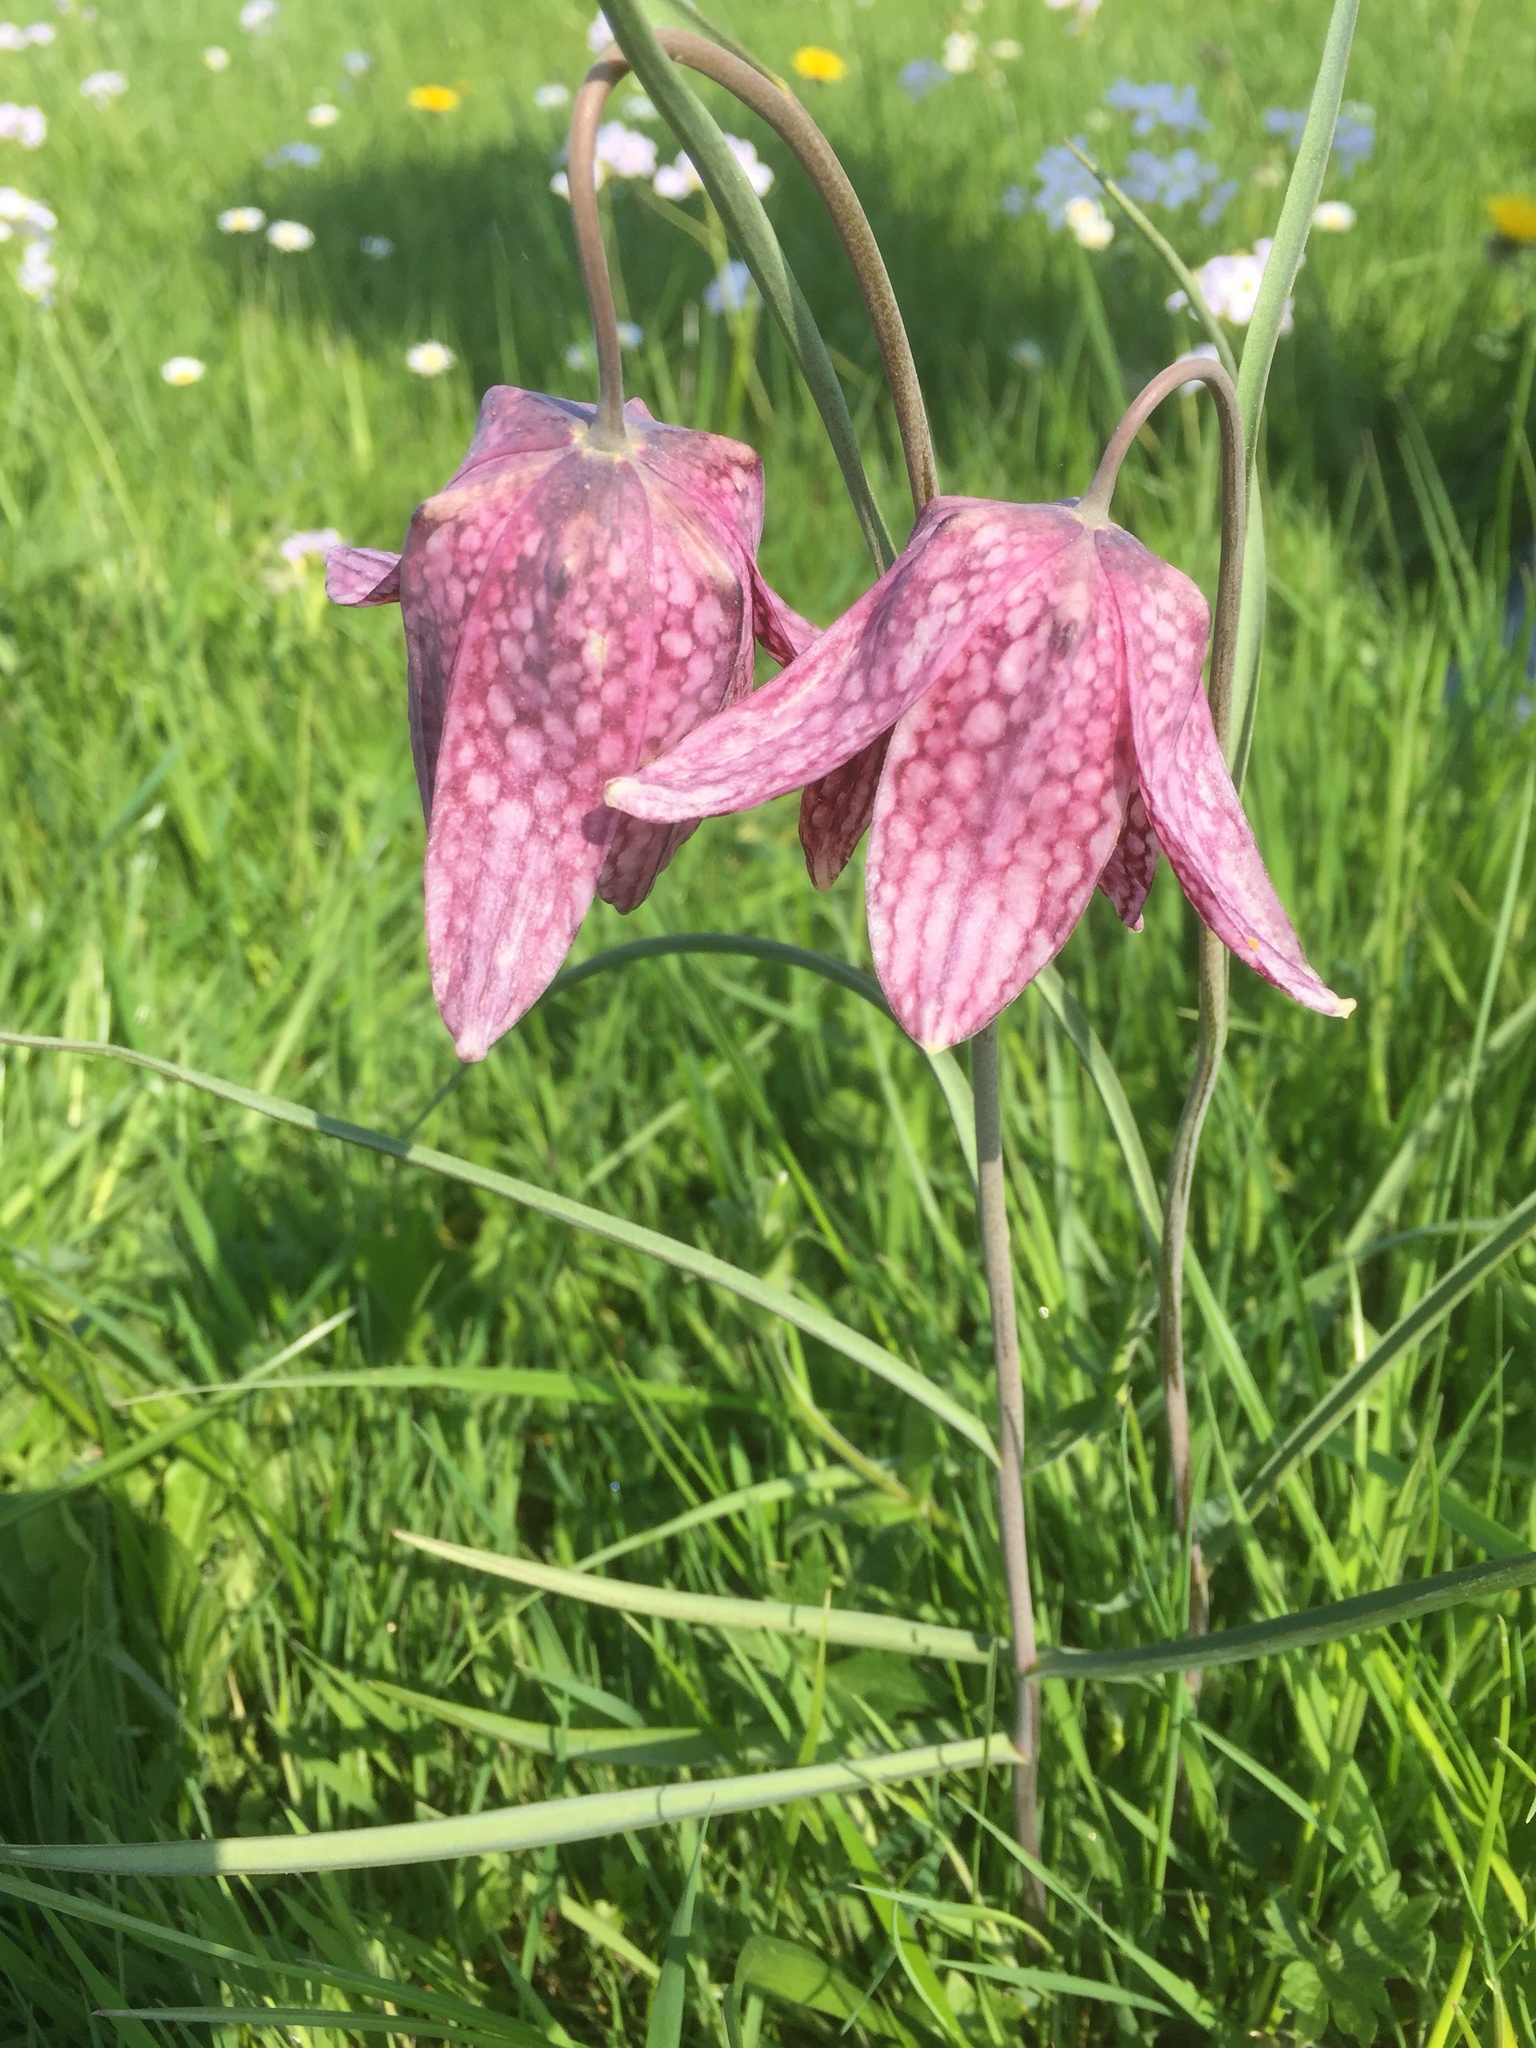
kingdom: Plantae
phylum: Tracheophyta
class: Liliopsida
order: Liliales
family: Liliaceae
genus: Fritillaria
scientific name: Fritillaria meleagris
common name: Fritillary
